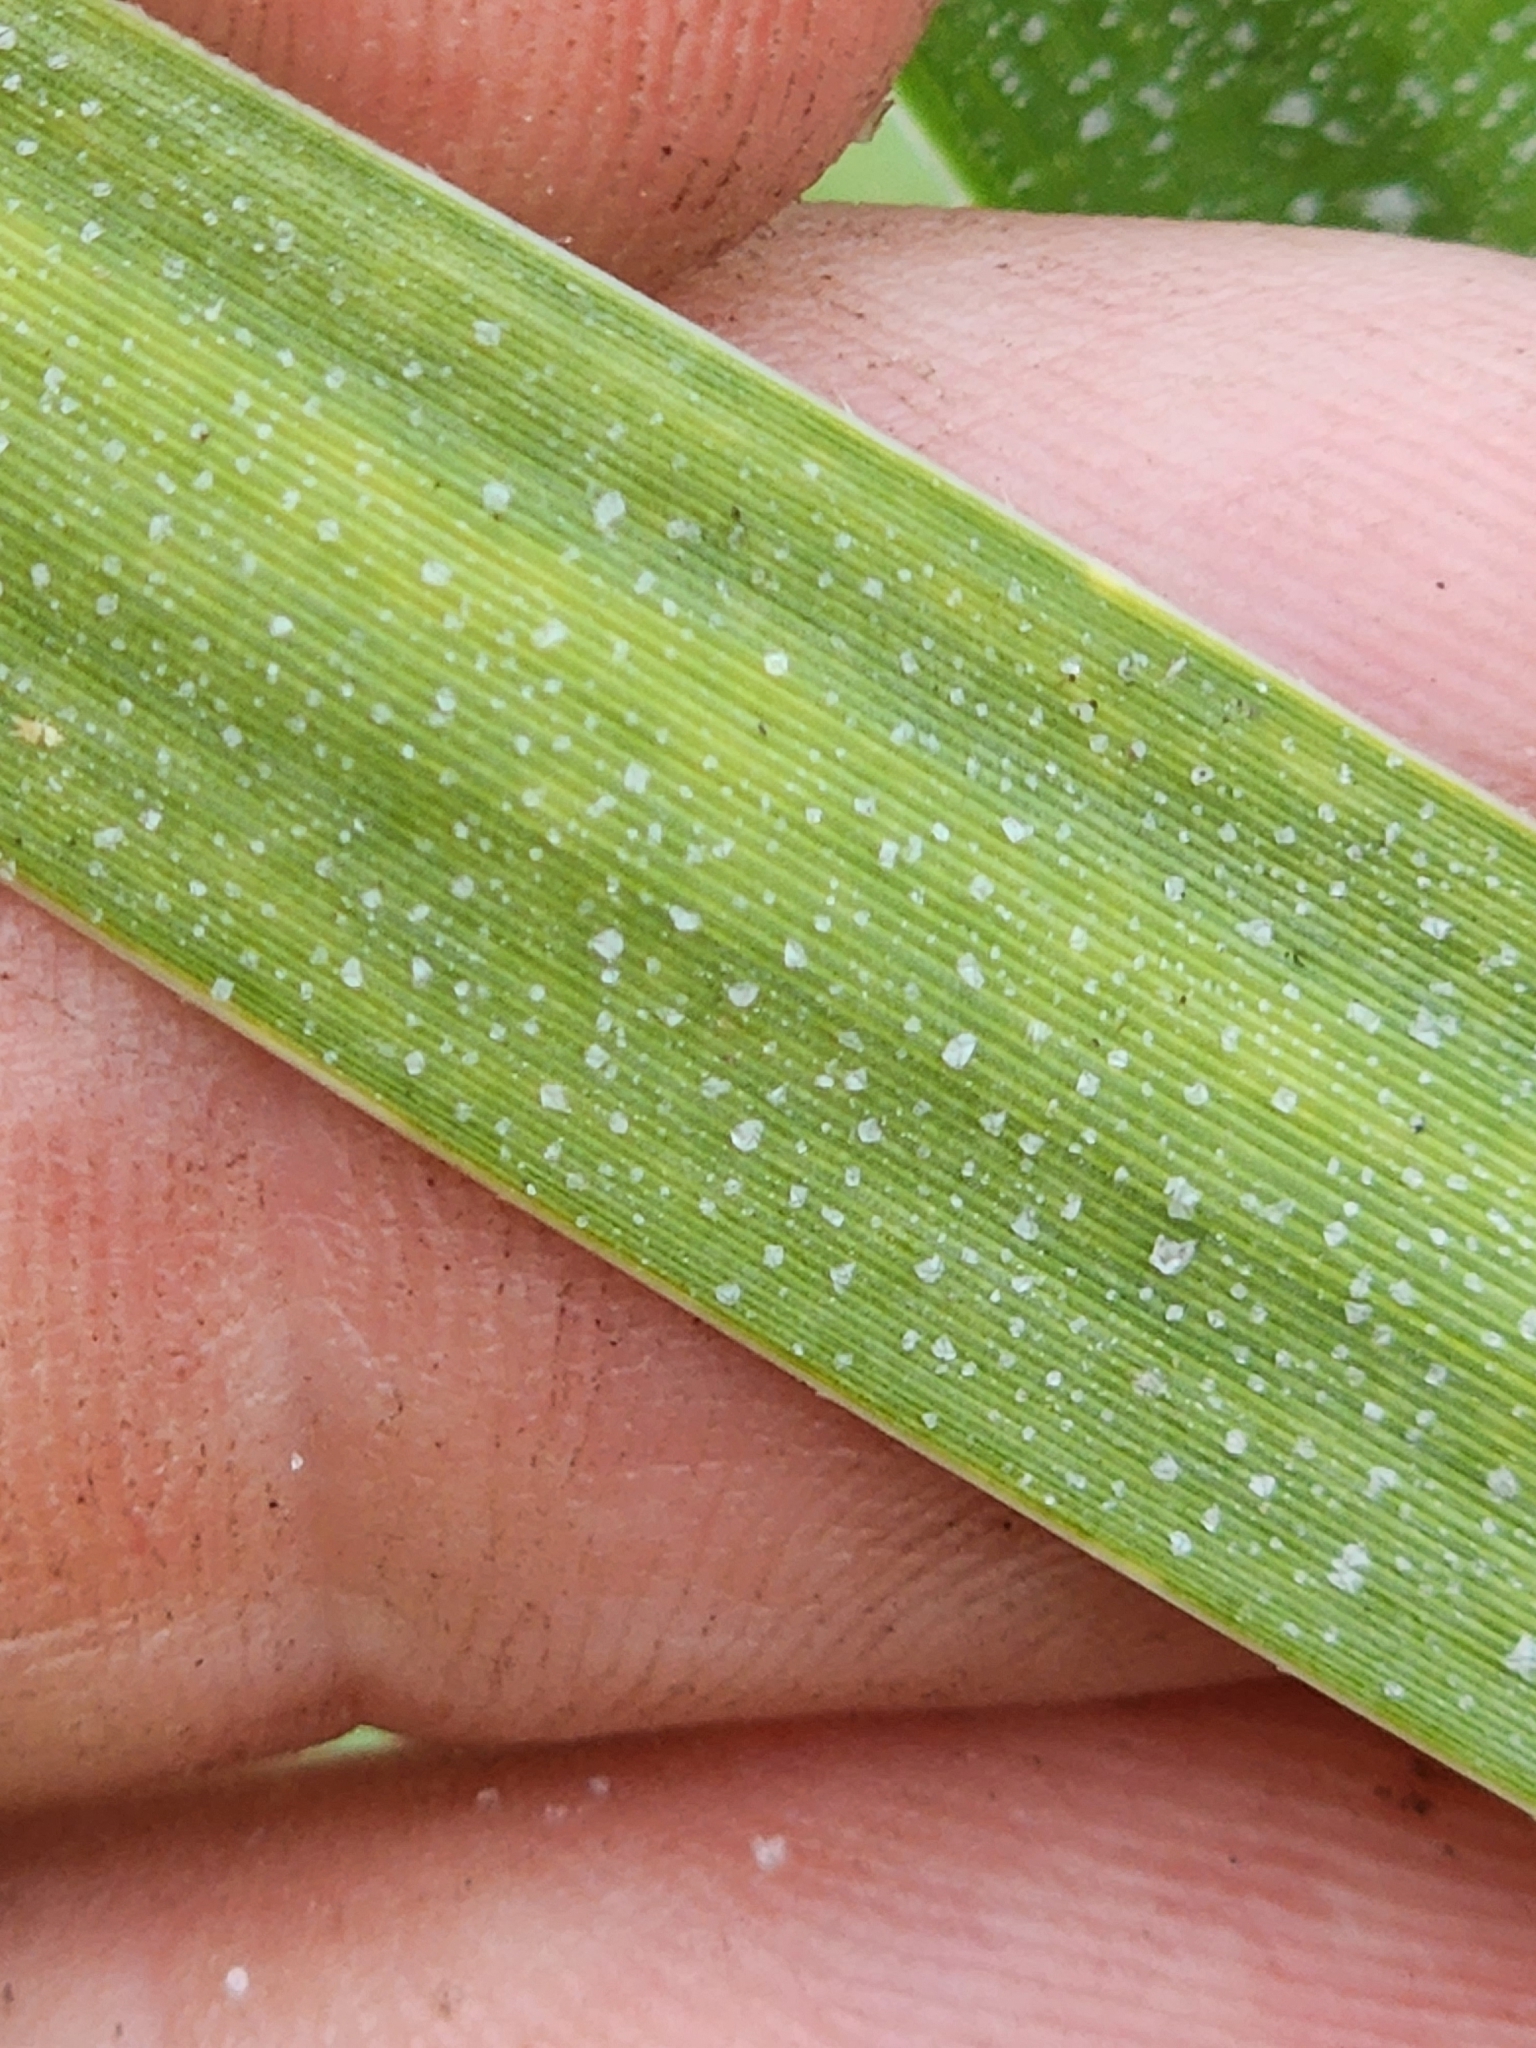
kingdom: Plantae
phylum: Tracheophyta
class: Liliopsida
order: Poales
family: Poaceae
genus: Sporobolus
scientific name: Sporobolus alterniflorus
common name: Atlantic cordgrass
